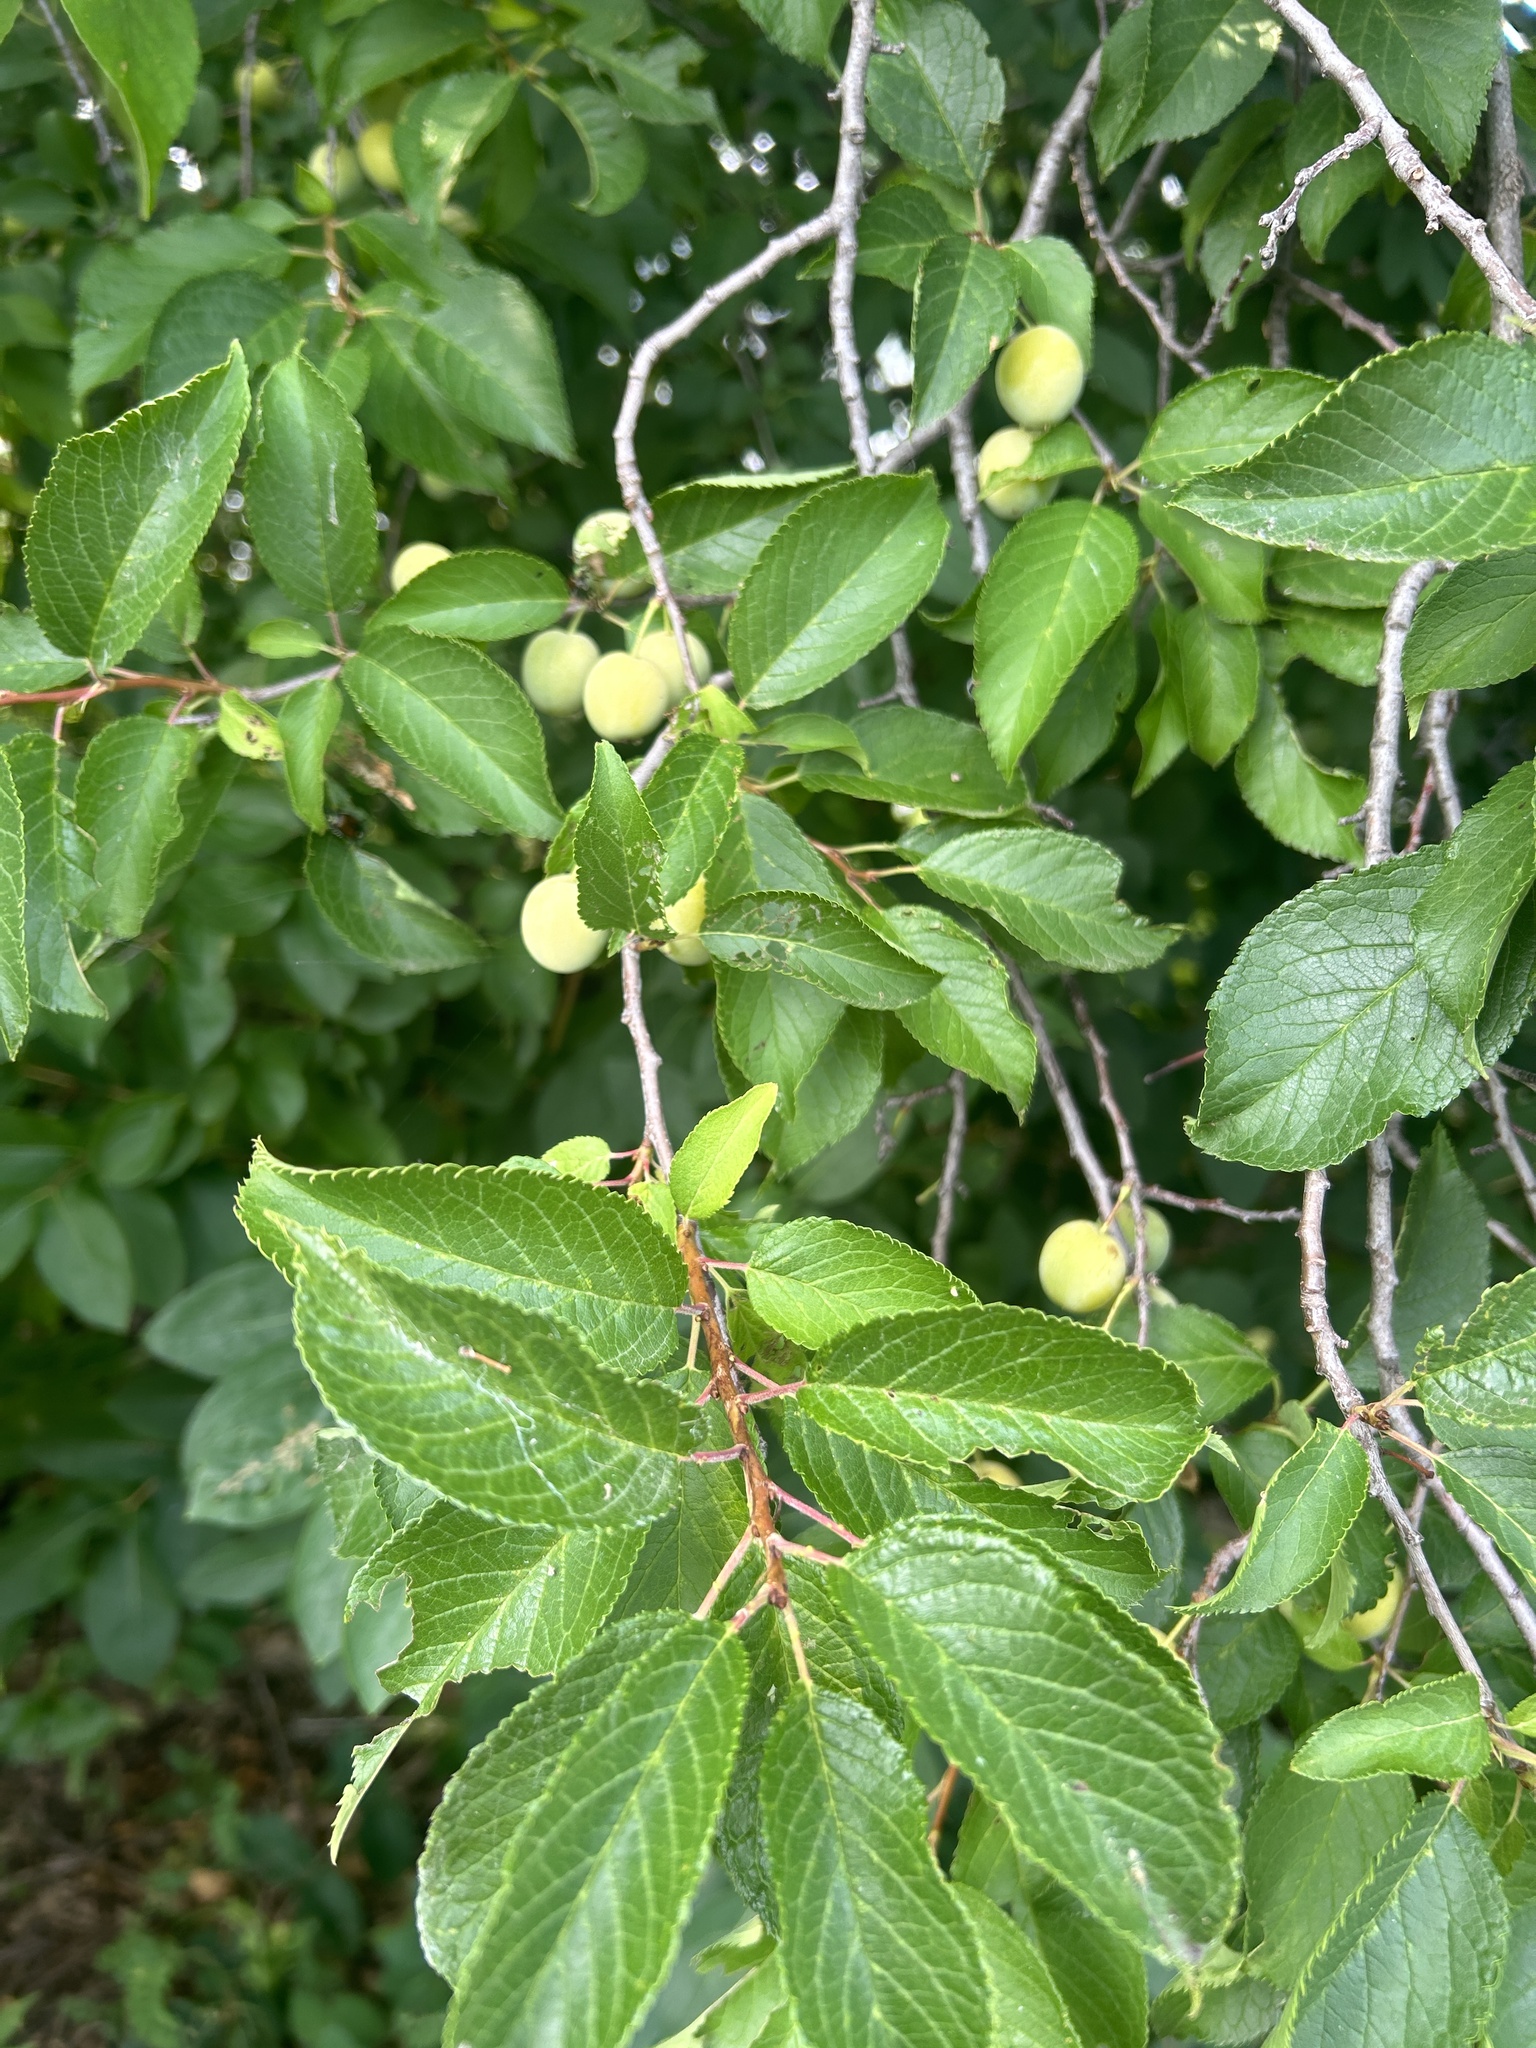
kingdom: Plantae
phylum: Tracheophyta
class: Magnoliopsida
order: Rosales
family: Rosaceae
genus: Prunus
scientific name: Prunus americana
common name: American plum
